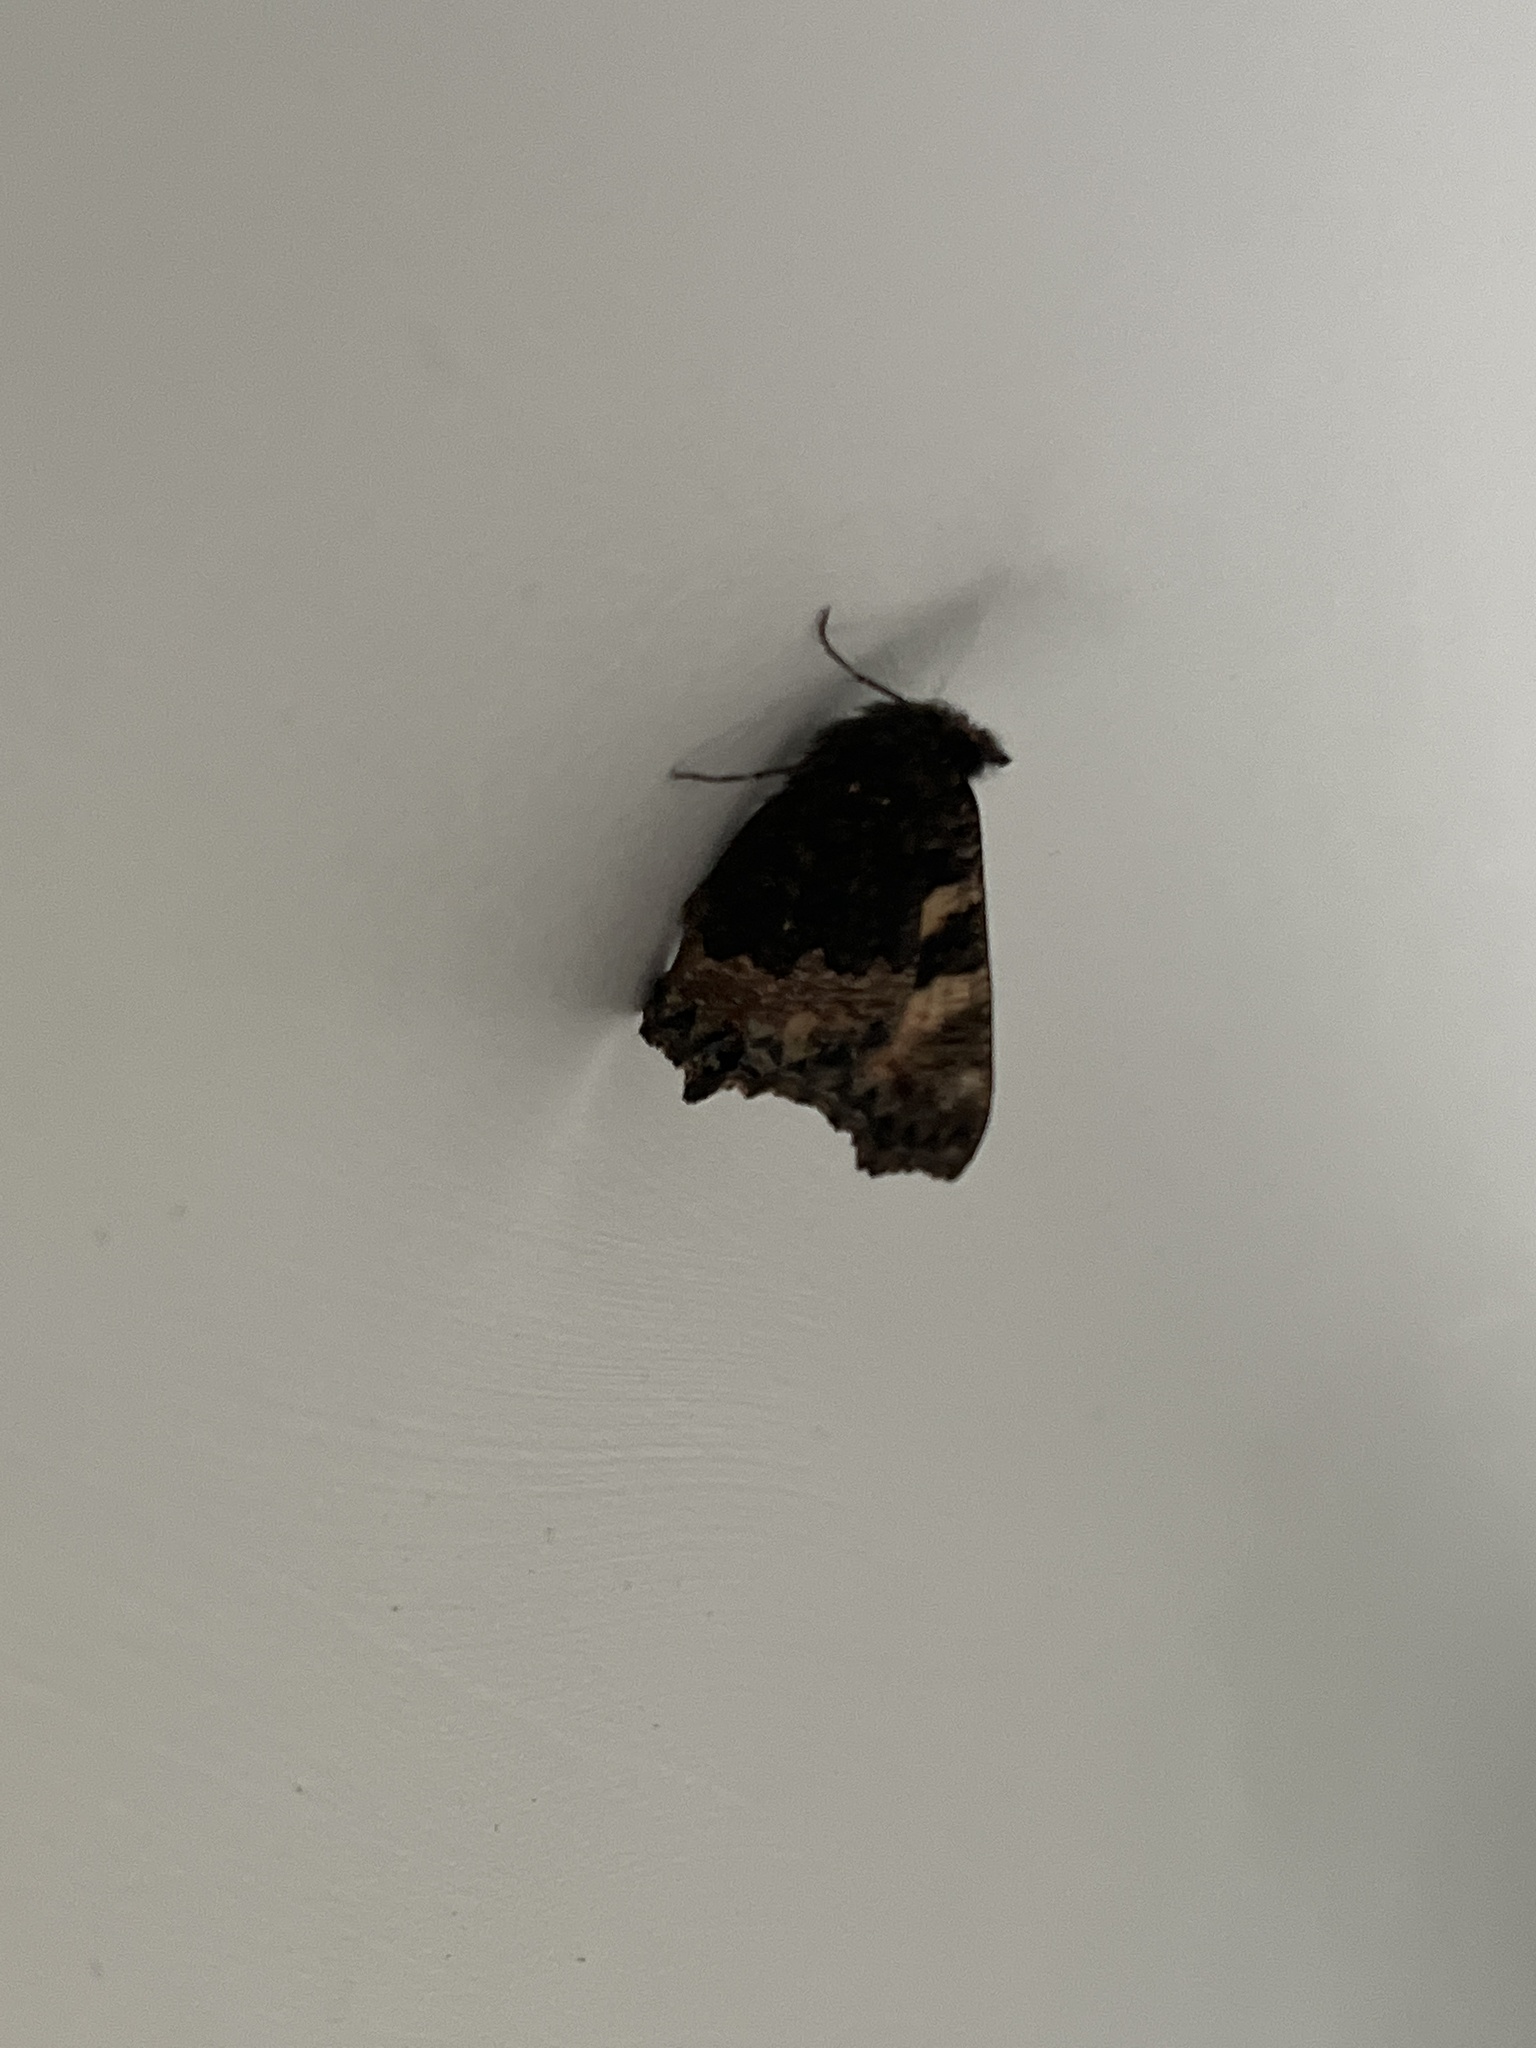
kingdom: Animalia
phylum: Arthropoda
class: Insecta
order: Lepidoptera
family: Nymphalidae
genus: Aglais
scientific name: Aglais urticae
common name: Small tortoiseshell
